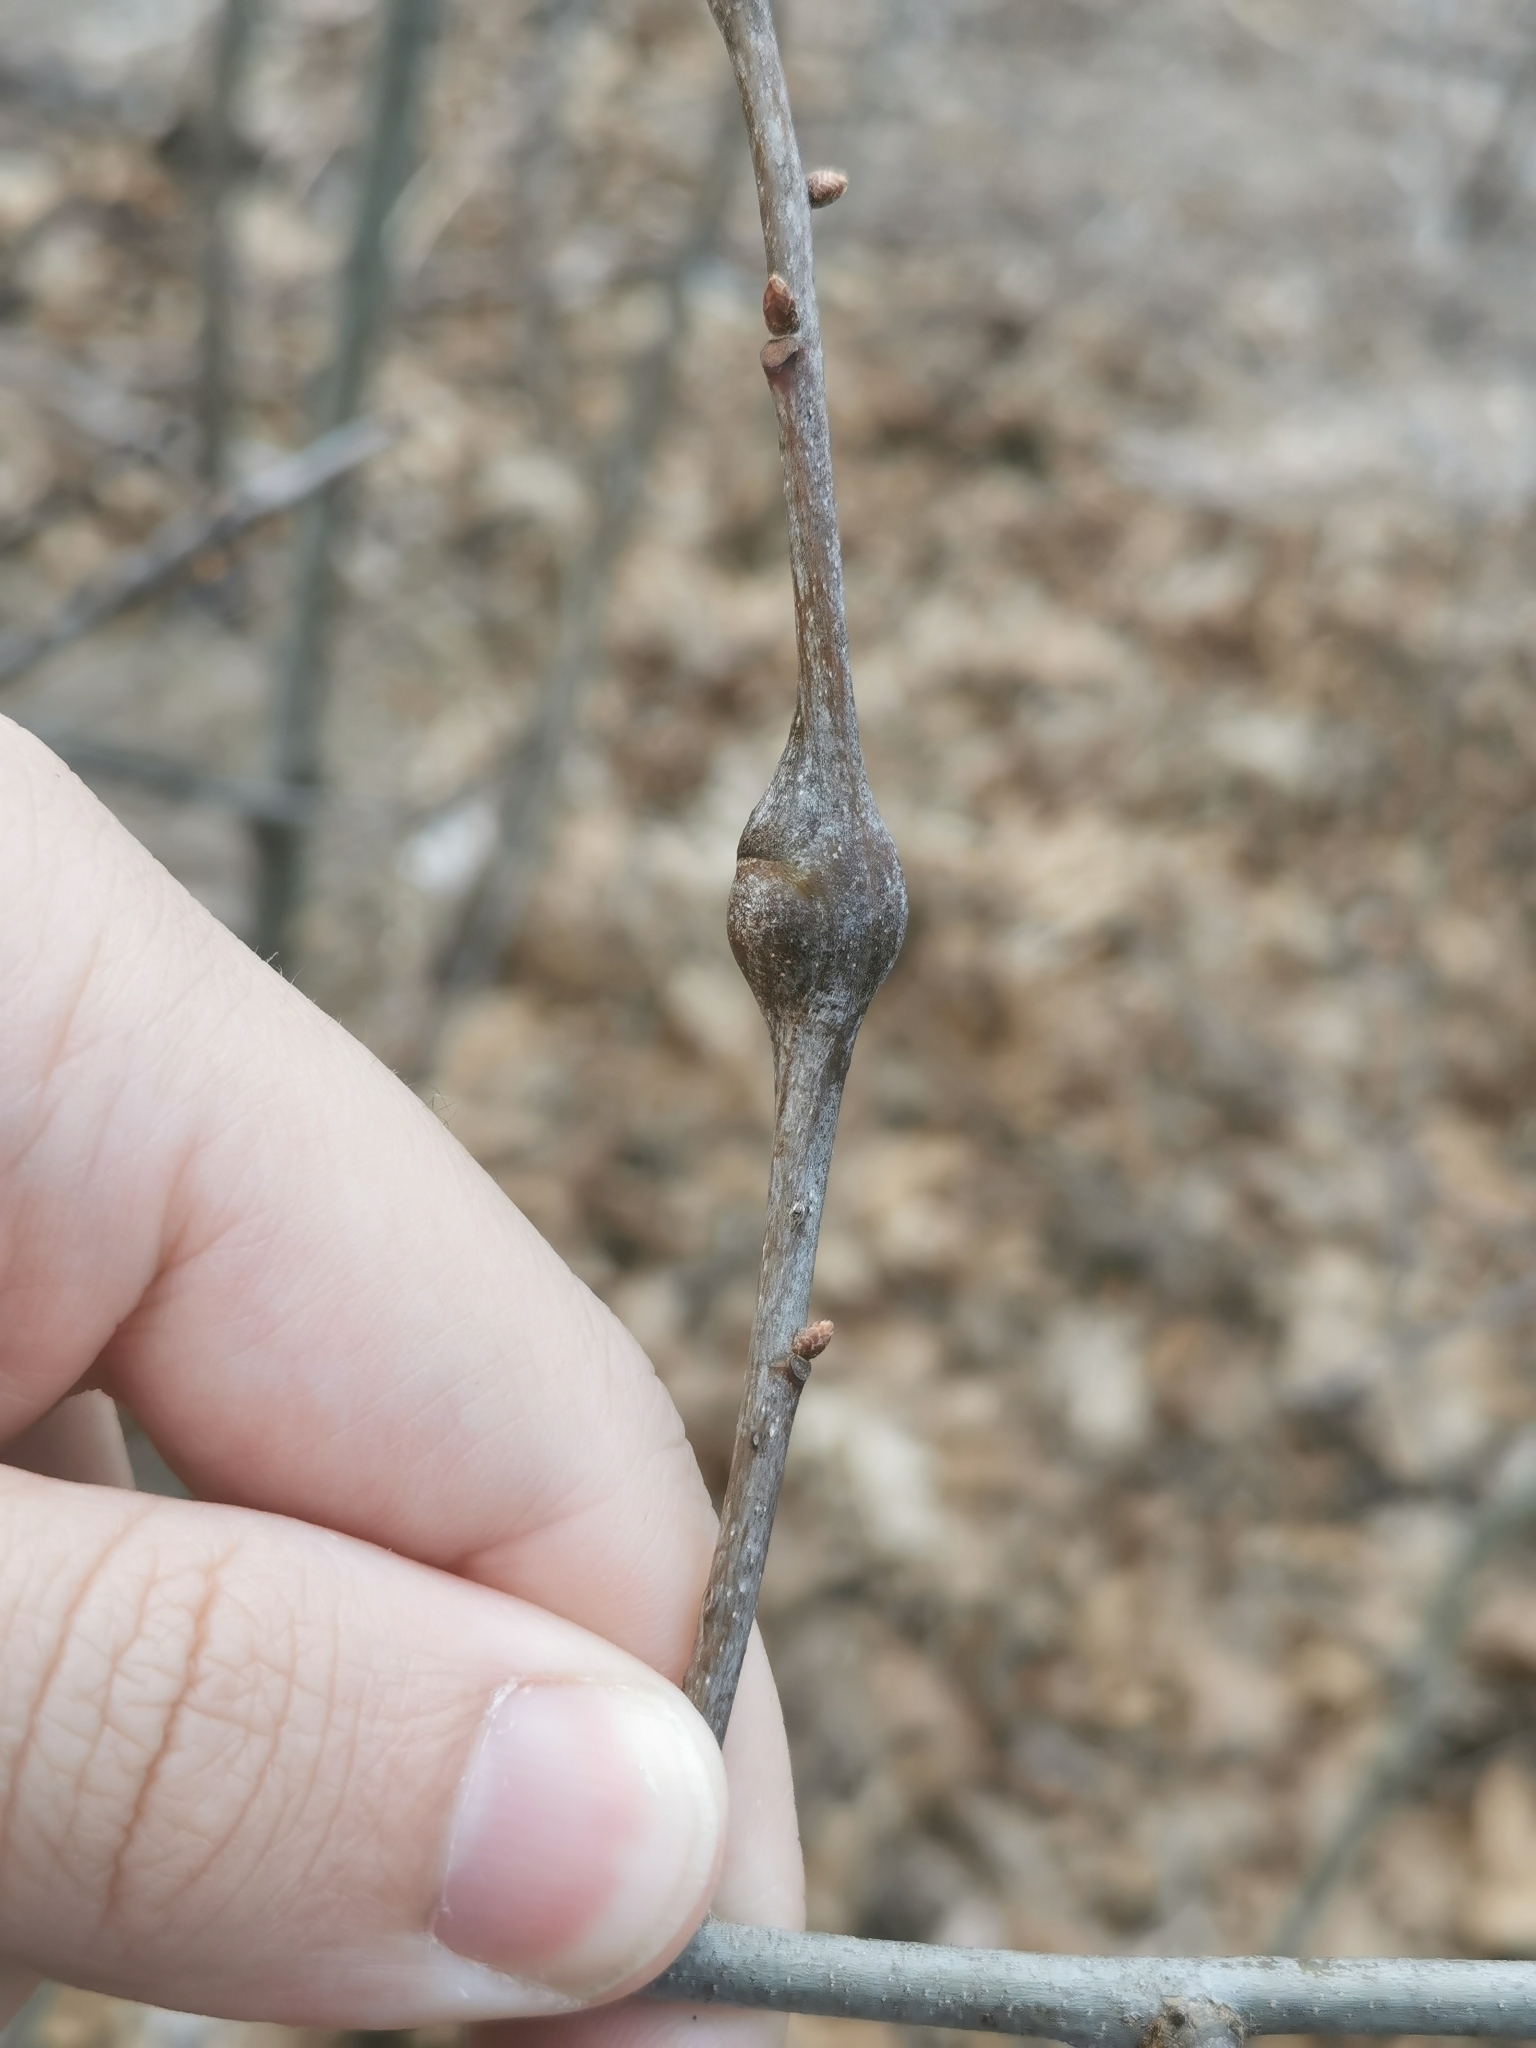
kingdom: Animalia
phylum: Arthropoda
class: Insecta
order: Hymenoptera
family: Cynipidae
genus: Zapatella
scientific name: Zapatella quercusphellos
